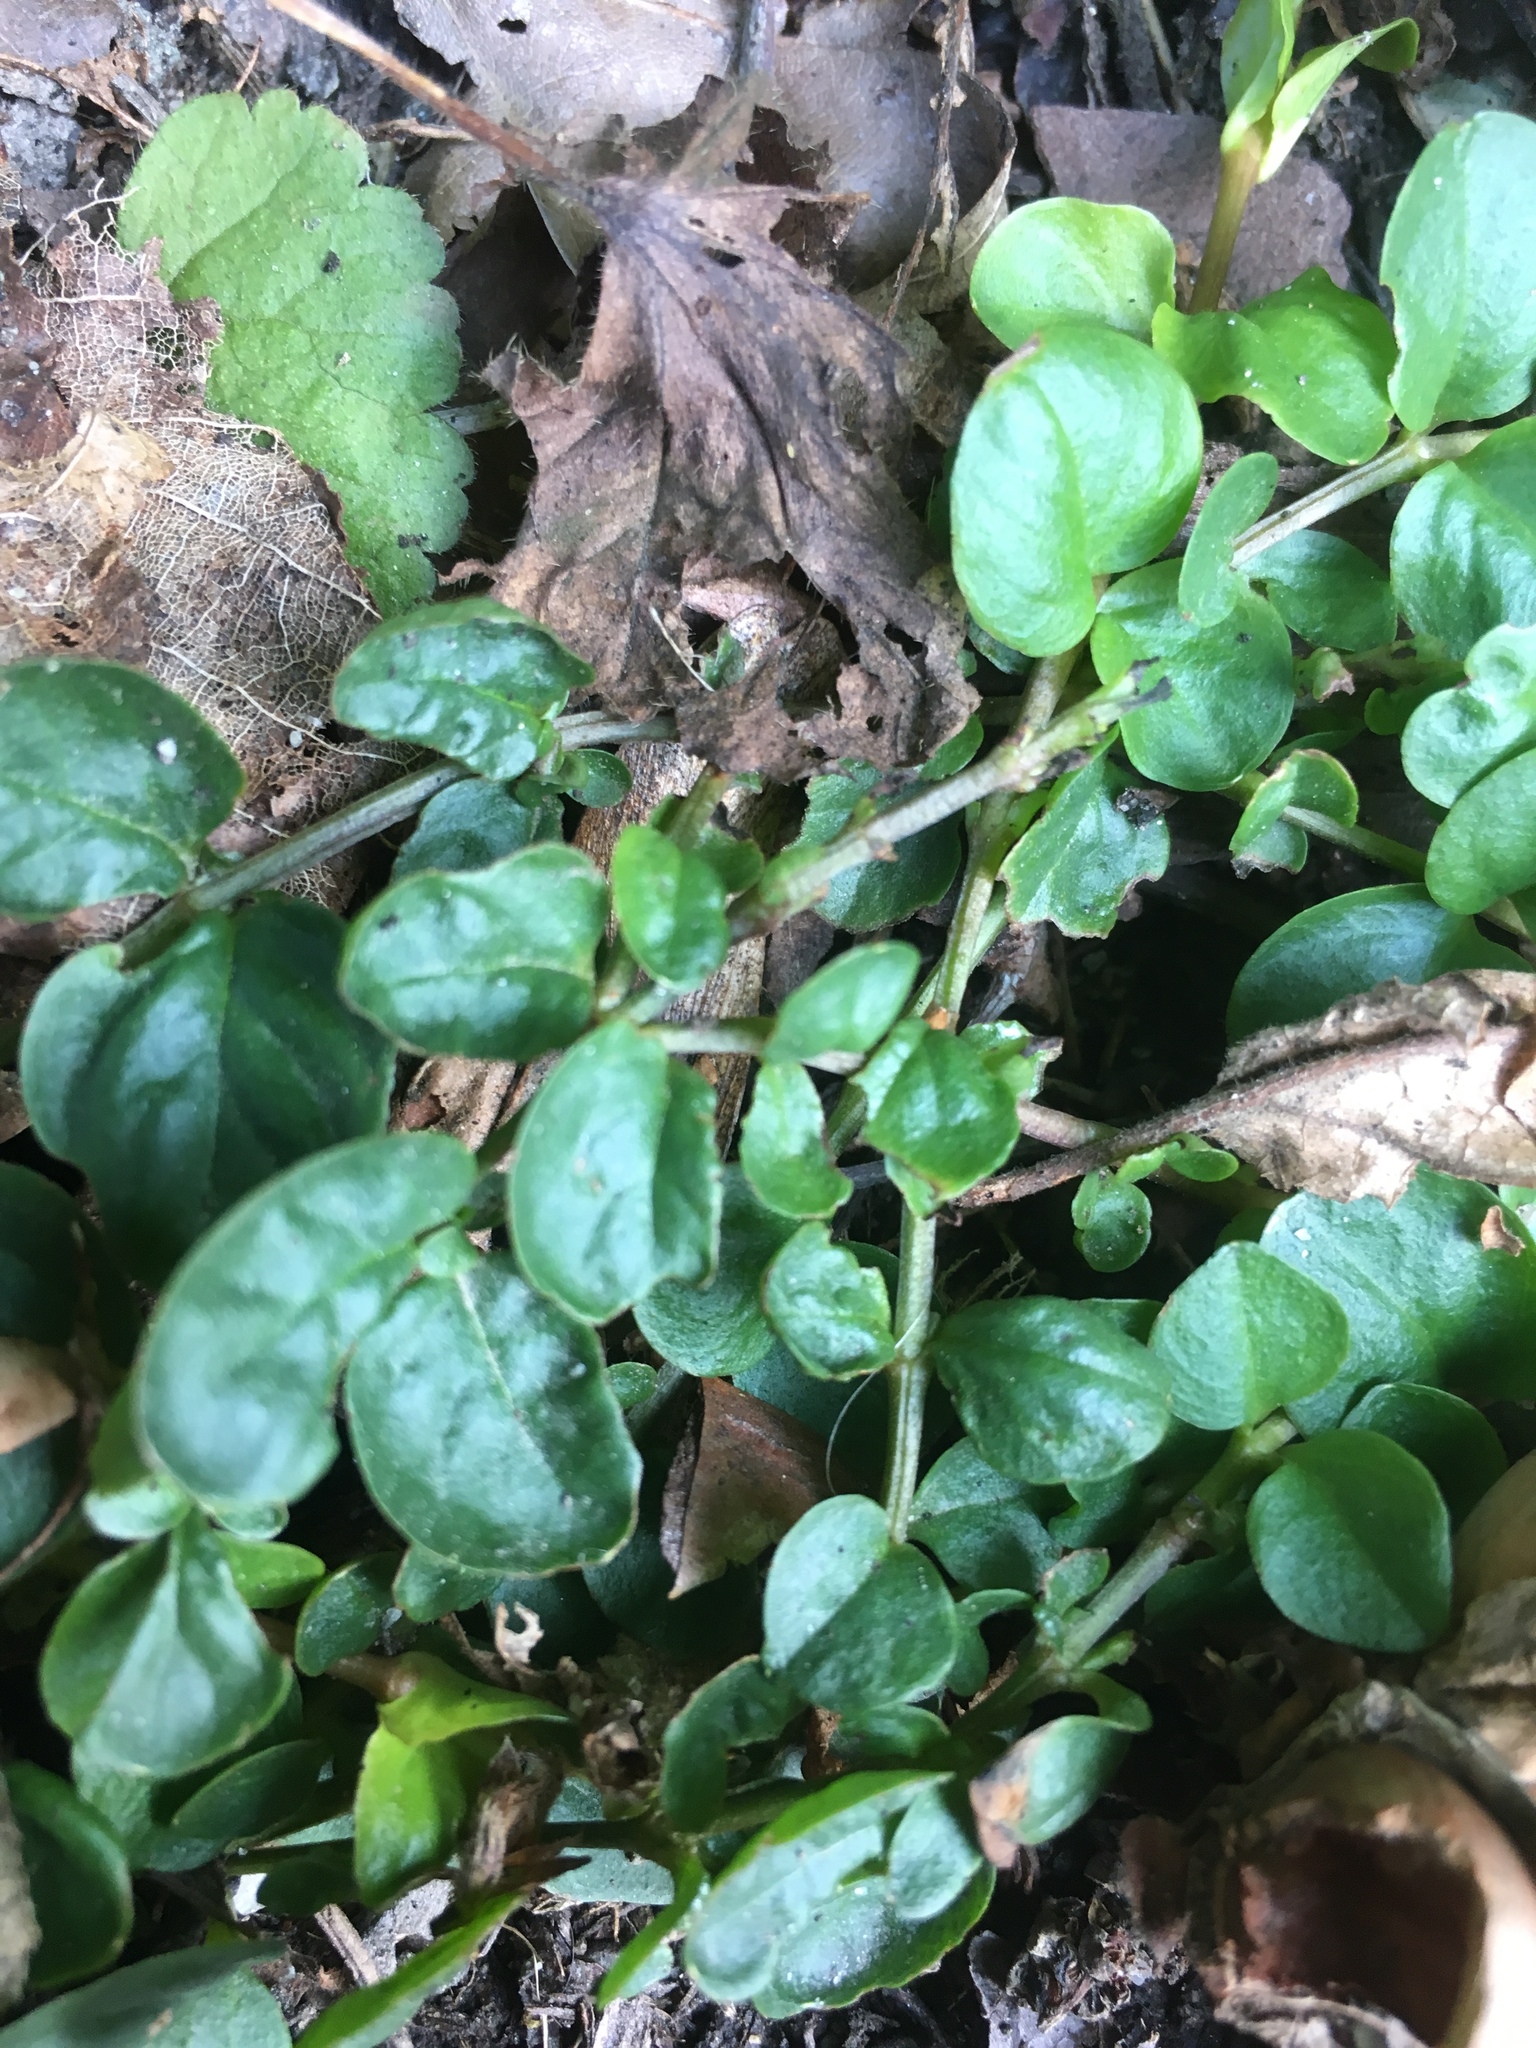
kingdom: Plantae
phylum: Tracheophyta
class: Magnoliopsida
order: Ericales
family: Primulaceae
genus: Lysimachia
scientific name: Lysimachia nummularia
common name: Moneywort
